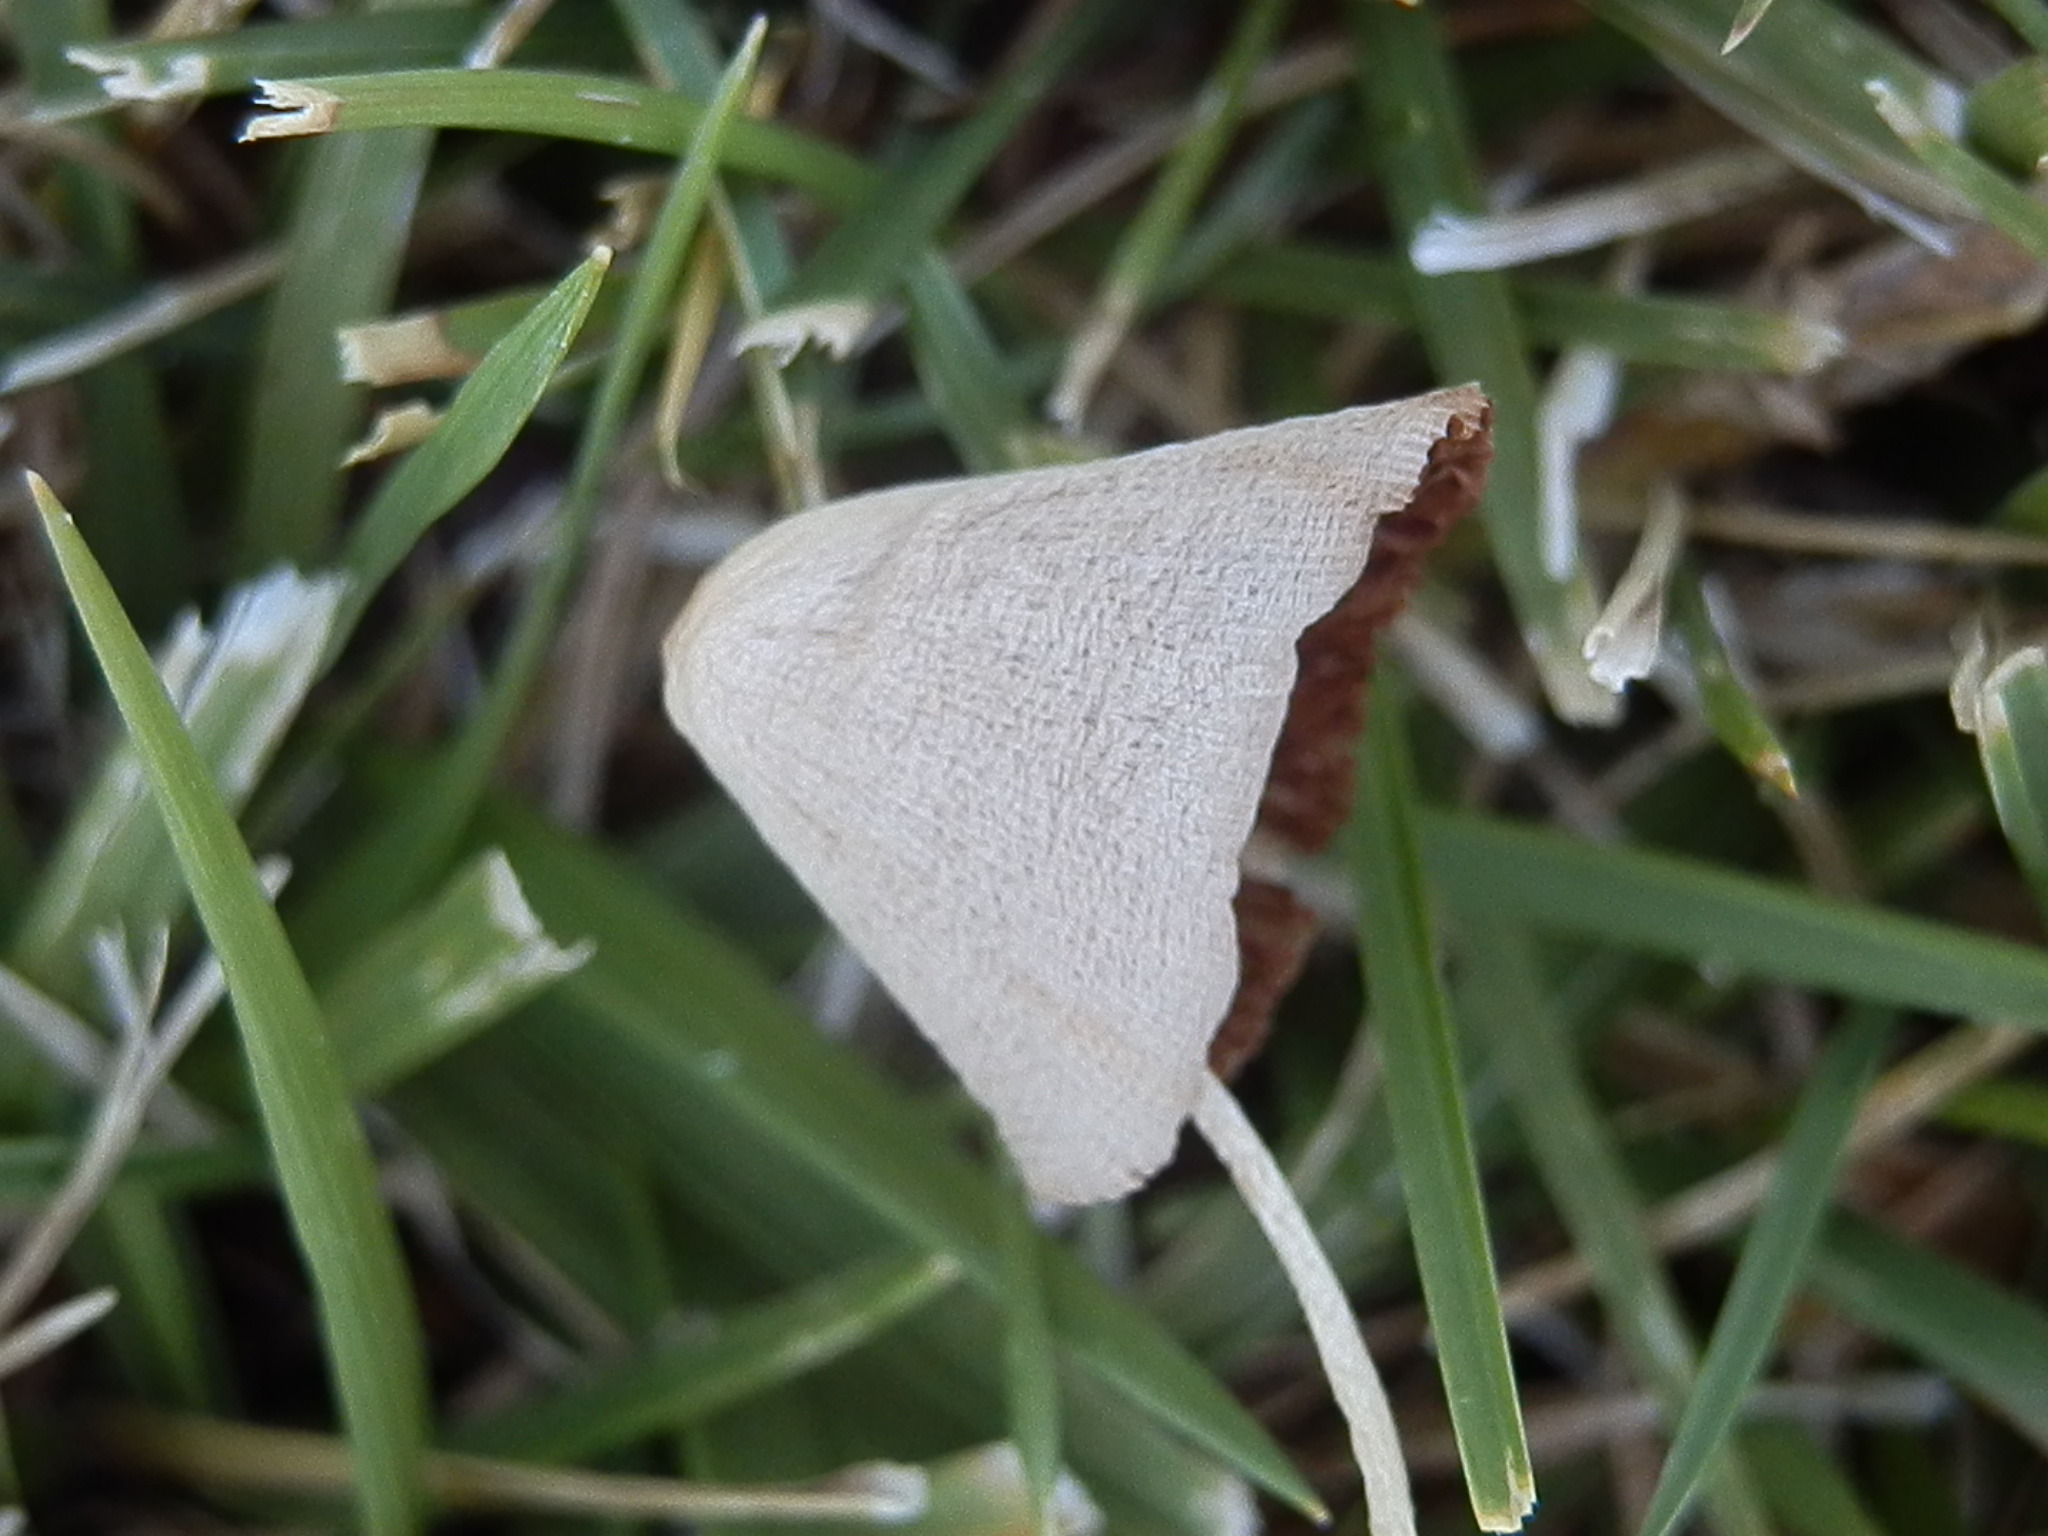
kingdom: Fungi
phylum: Basidiomycota
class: Agaricomycetes
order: Agaricales
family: Bolbitiaceae
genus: Conocybe
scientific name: Conocybe apala
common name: Milky conecap
